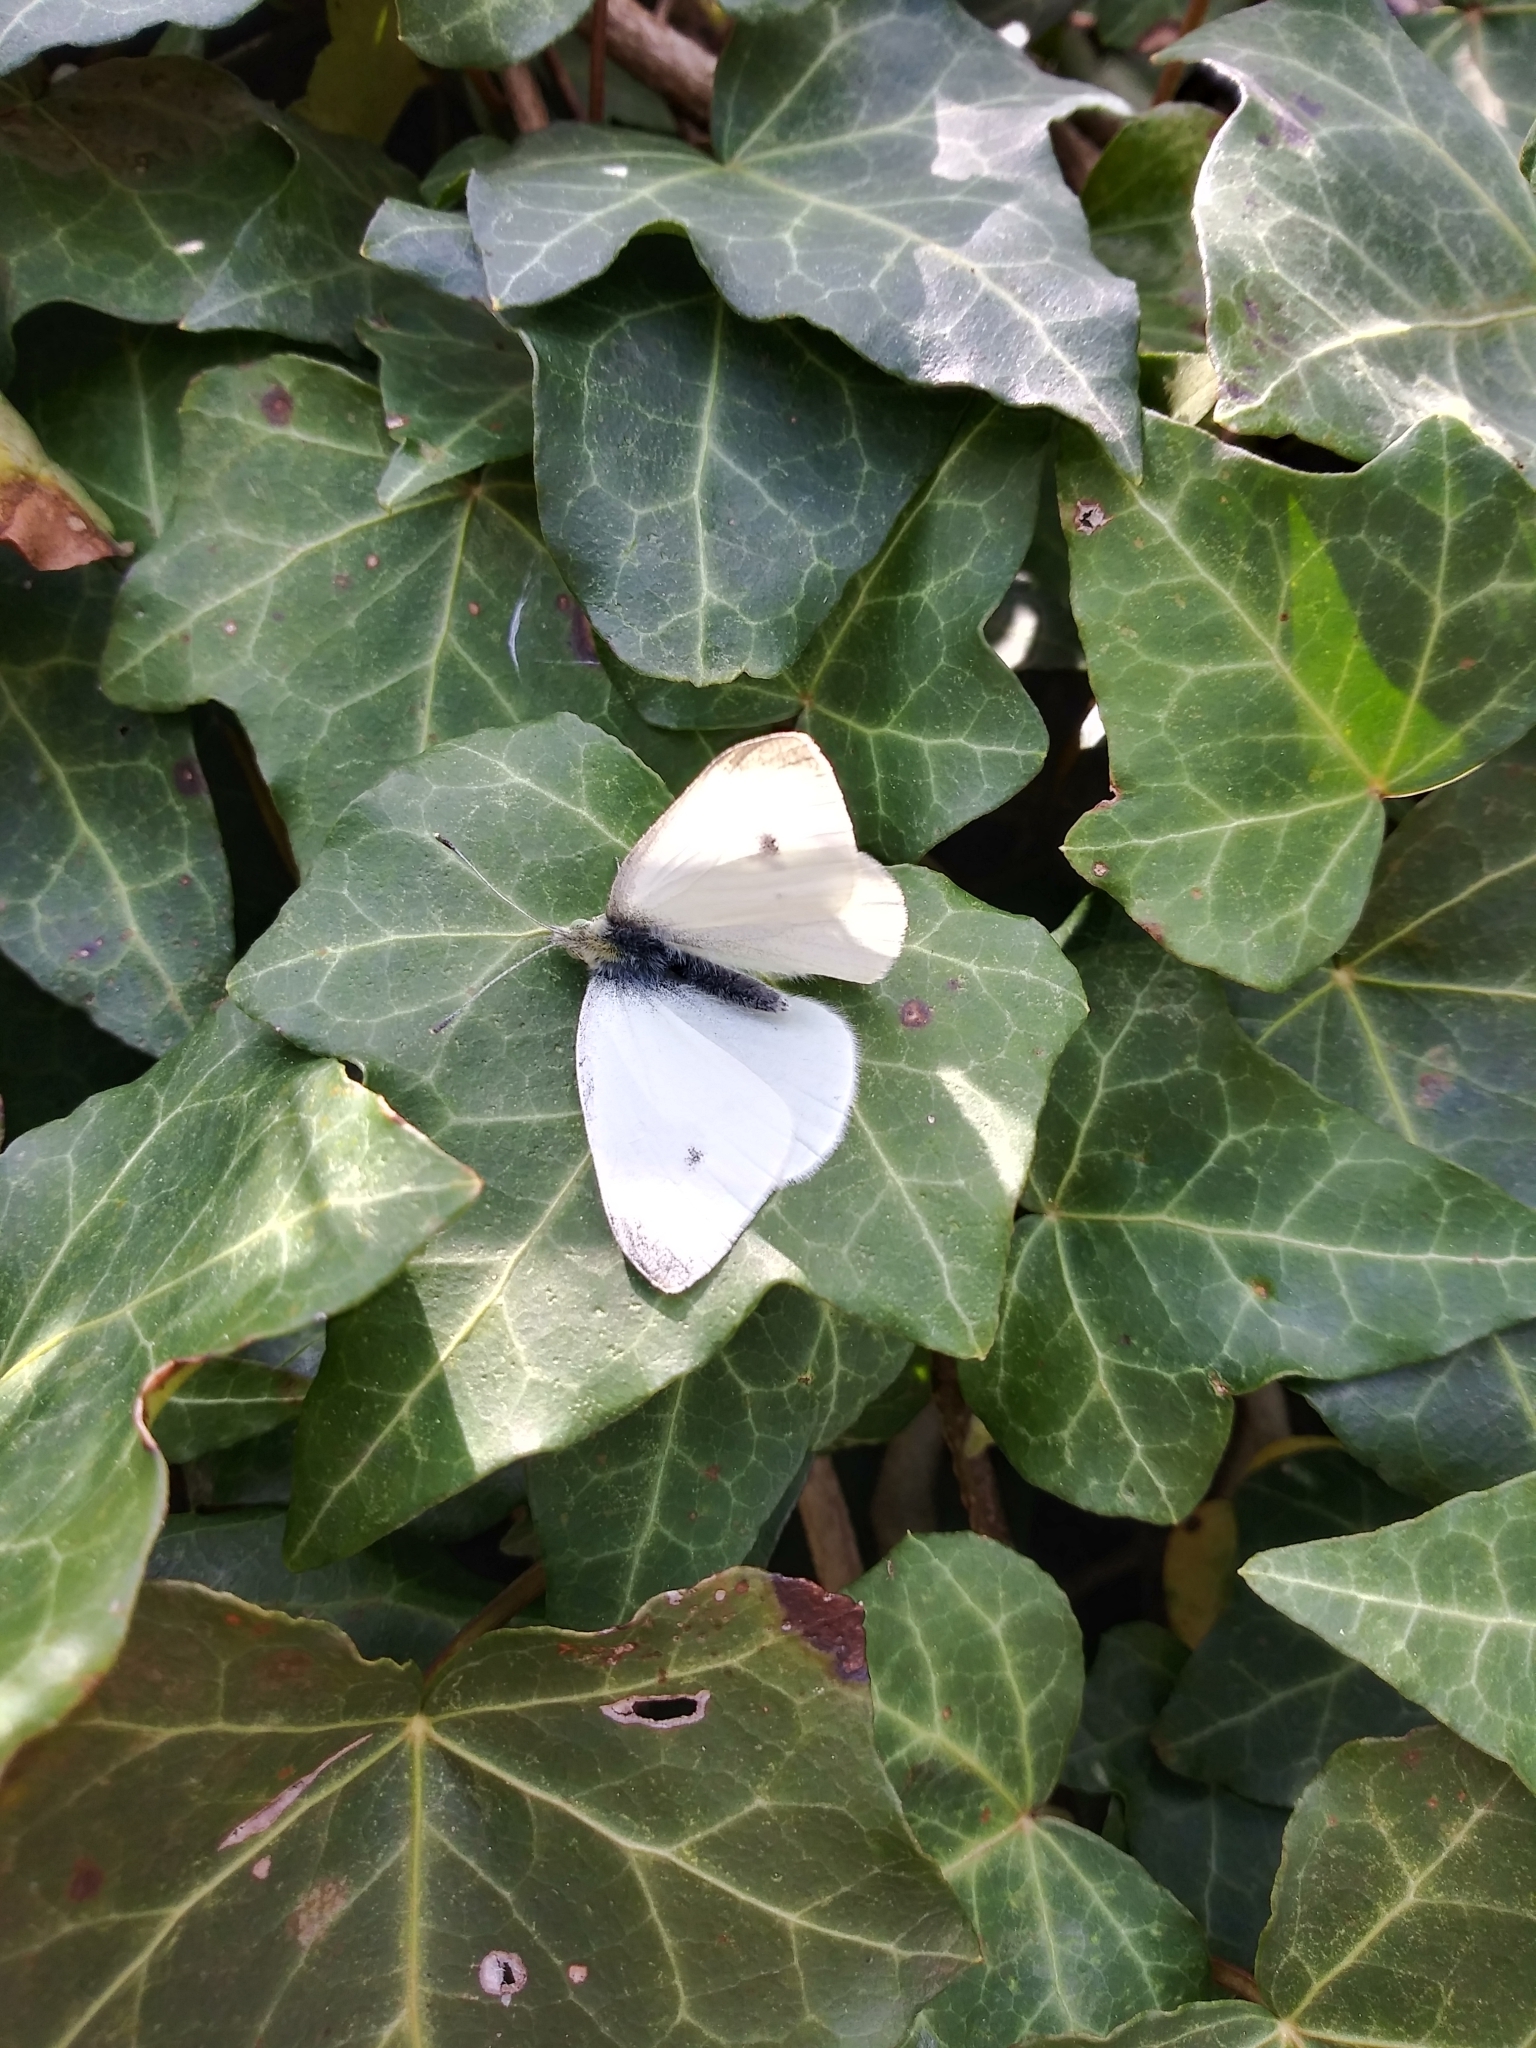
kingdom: Animalia
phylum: Arthropoda
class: Insecta
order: Lepidoptera
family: Pieridae
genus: Pieris
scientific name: Pieris rapae
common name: Small white
